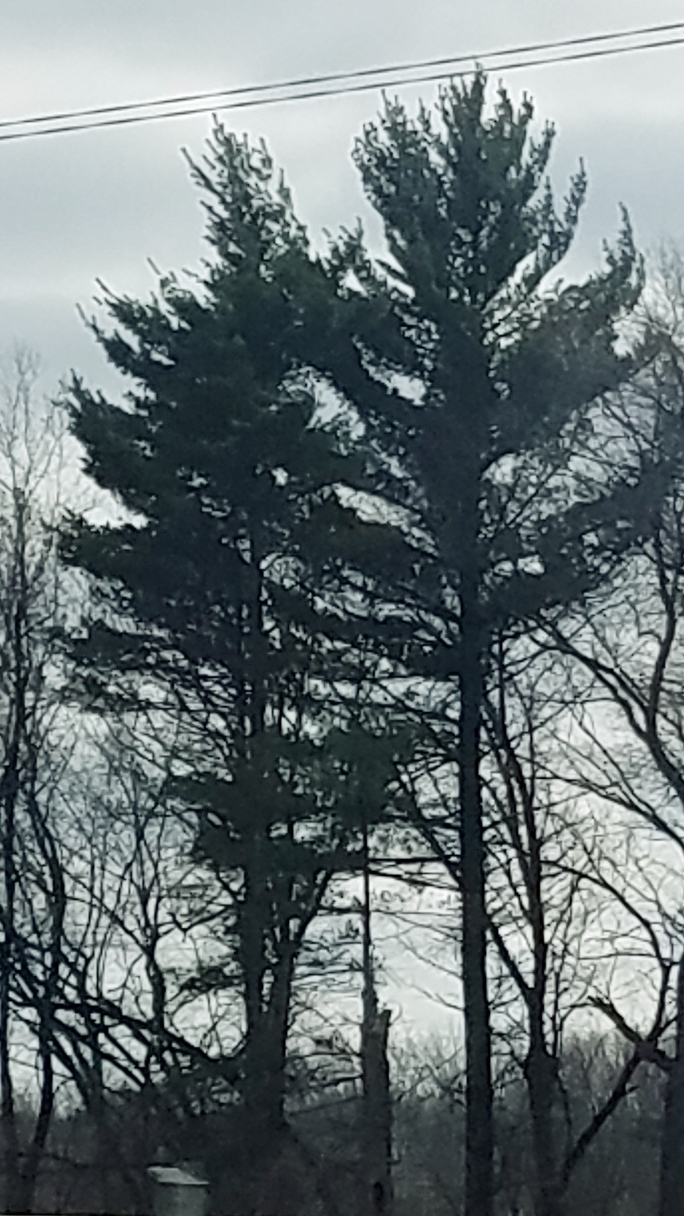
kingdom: Plantae
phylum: Tracheophyta
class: Pinopsida
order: Pinales
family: Pinaceae
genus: Pinus
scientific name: Pinus strobus
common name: Weymouth pine
